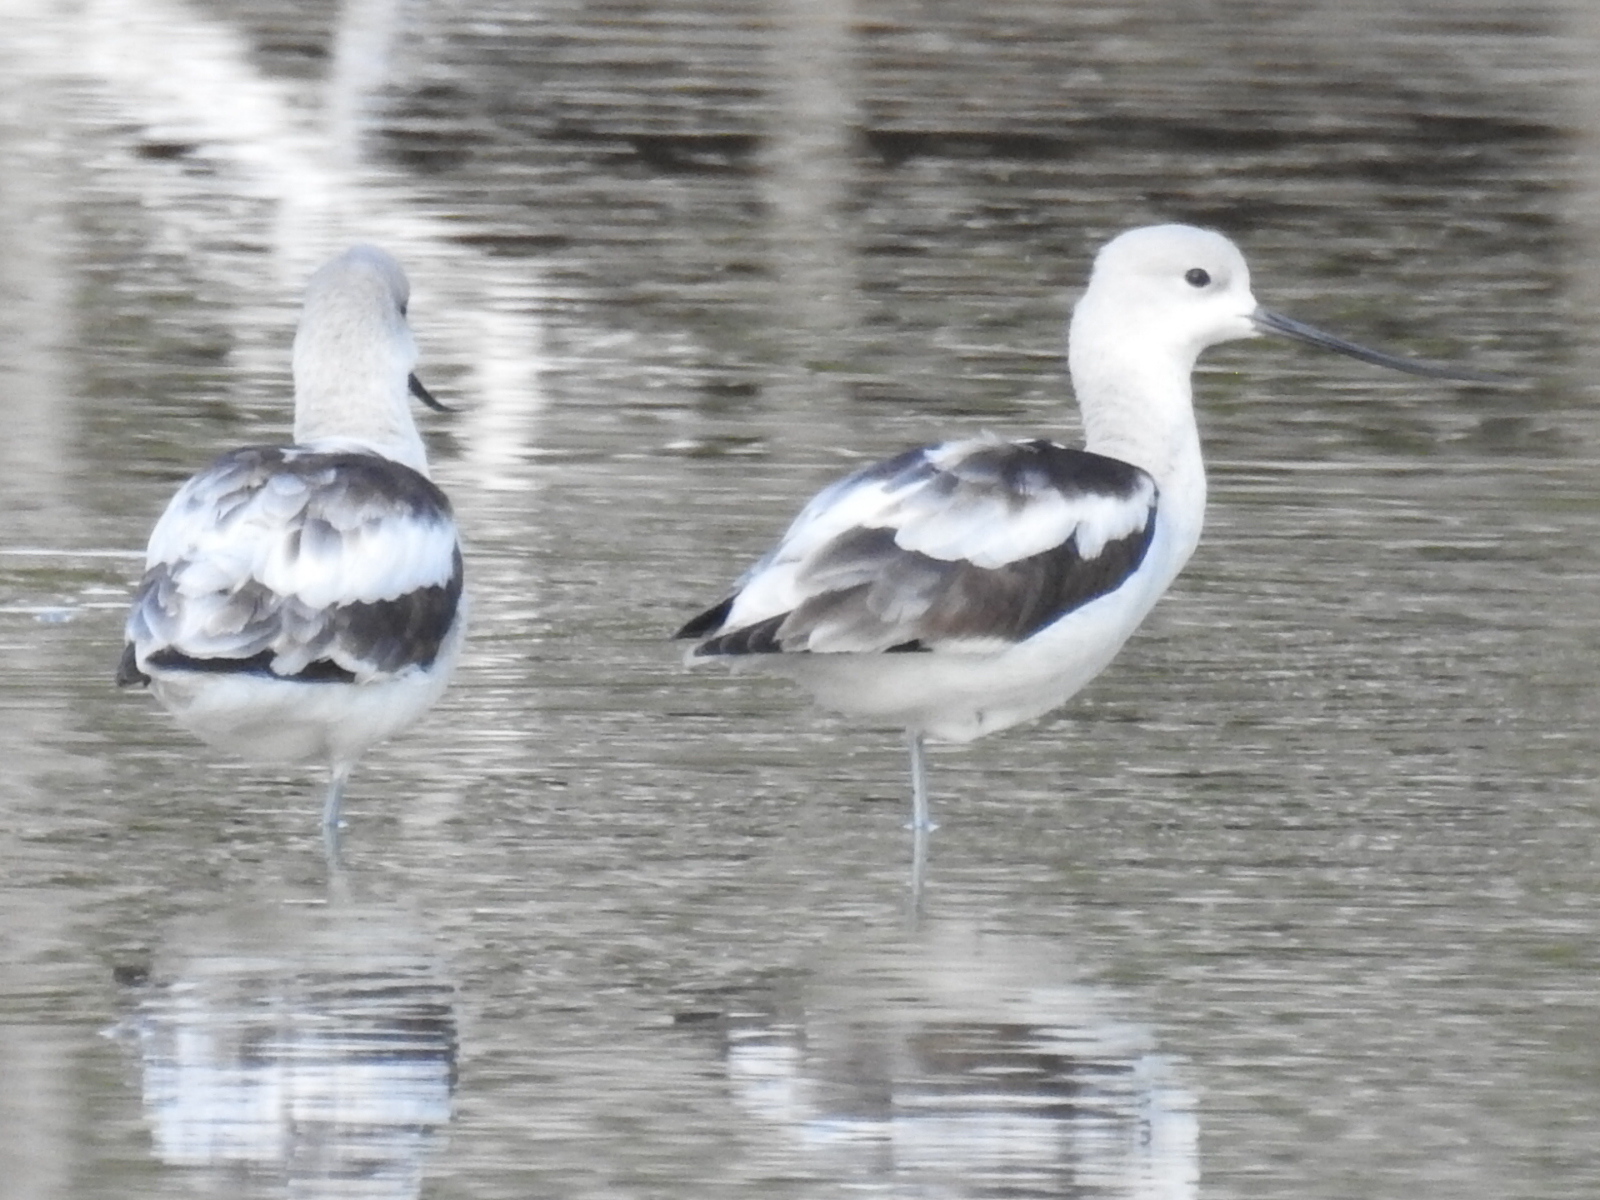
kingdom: Animalia
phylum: Chordata
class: Aves
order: Charadriiformes
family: Recurvirostridae
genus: Recurvirostra
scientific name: Recurvirostra americana
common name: American avocet
